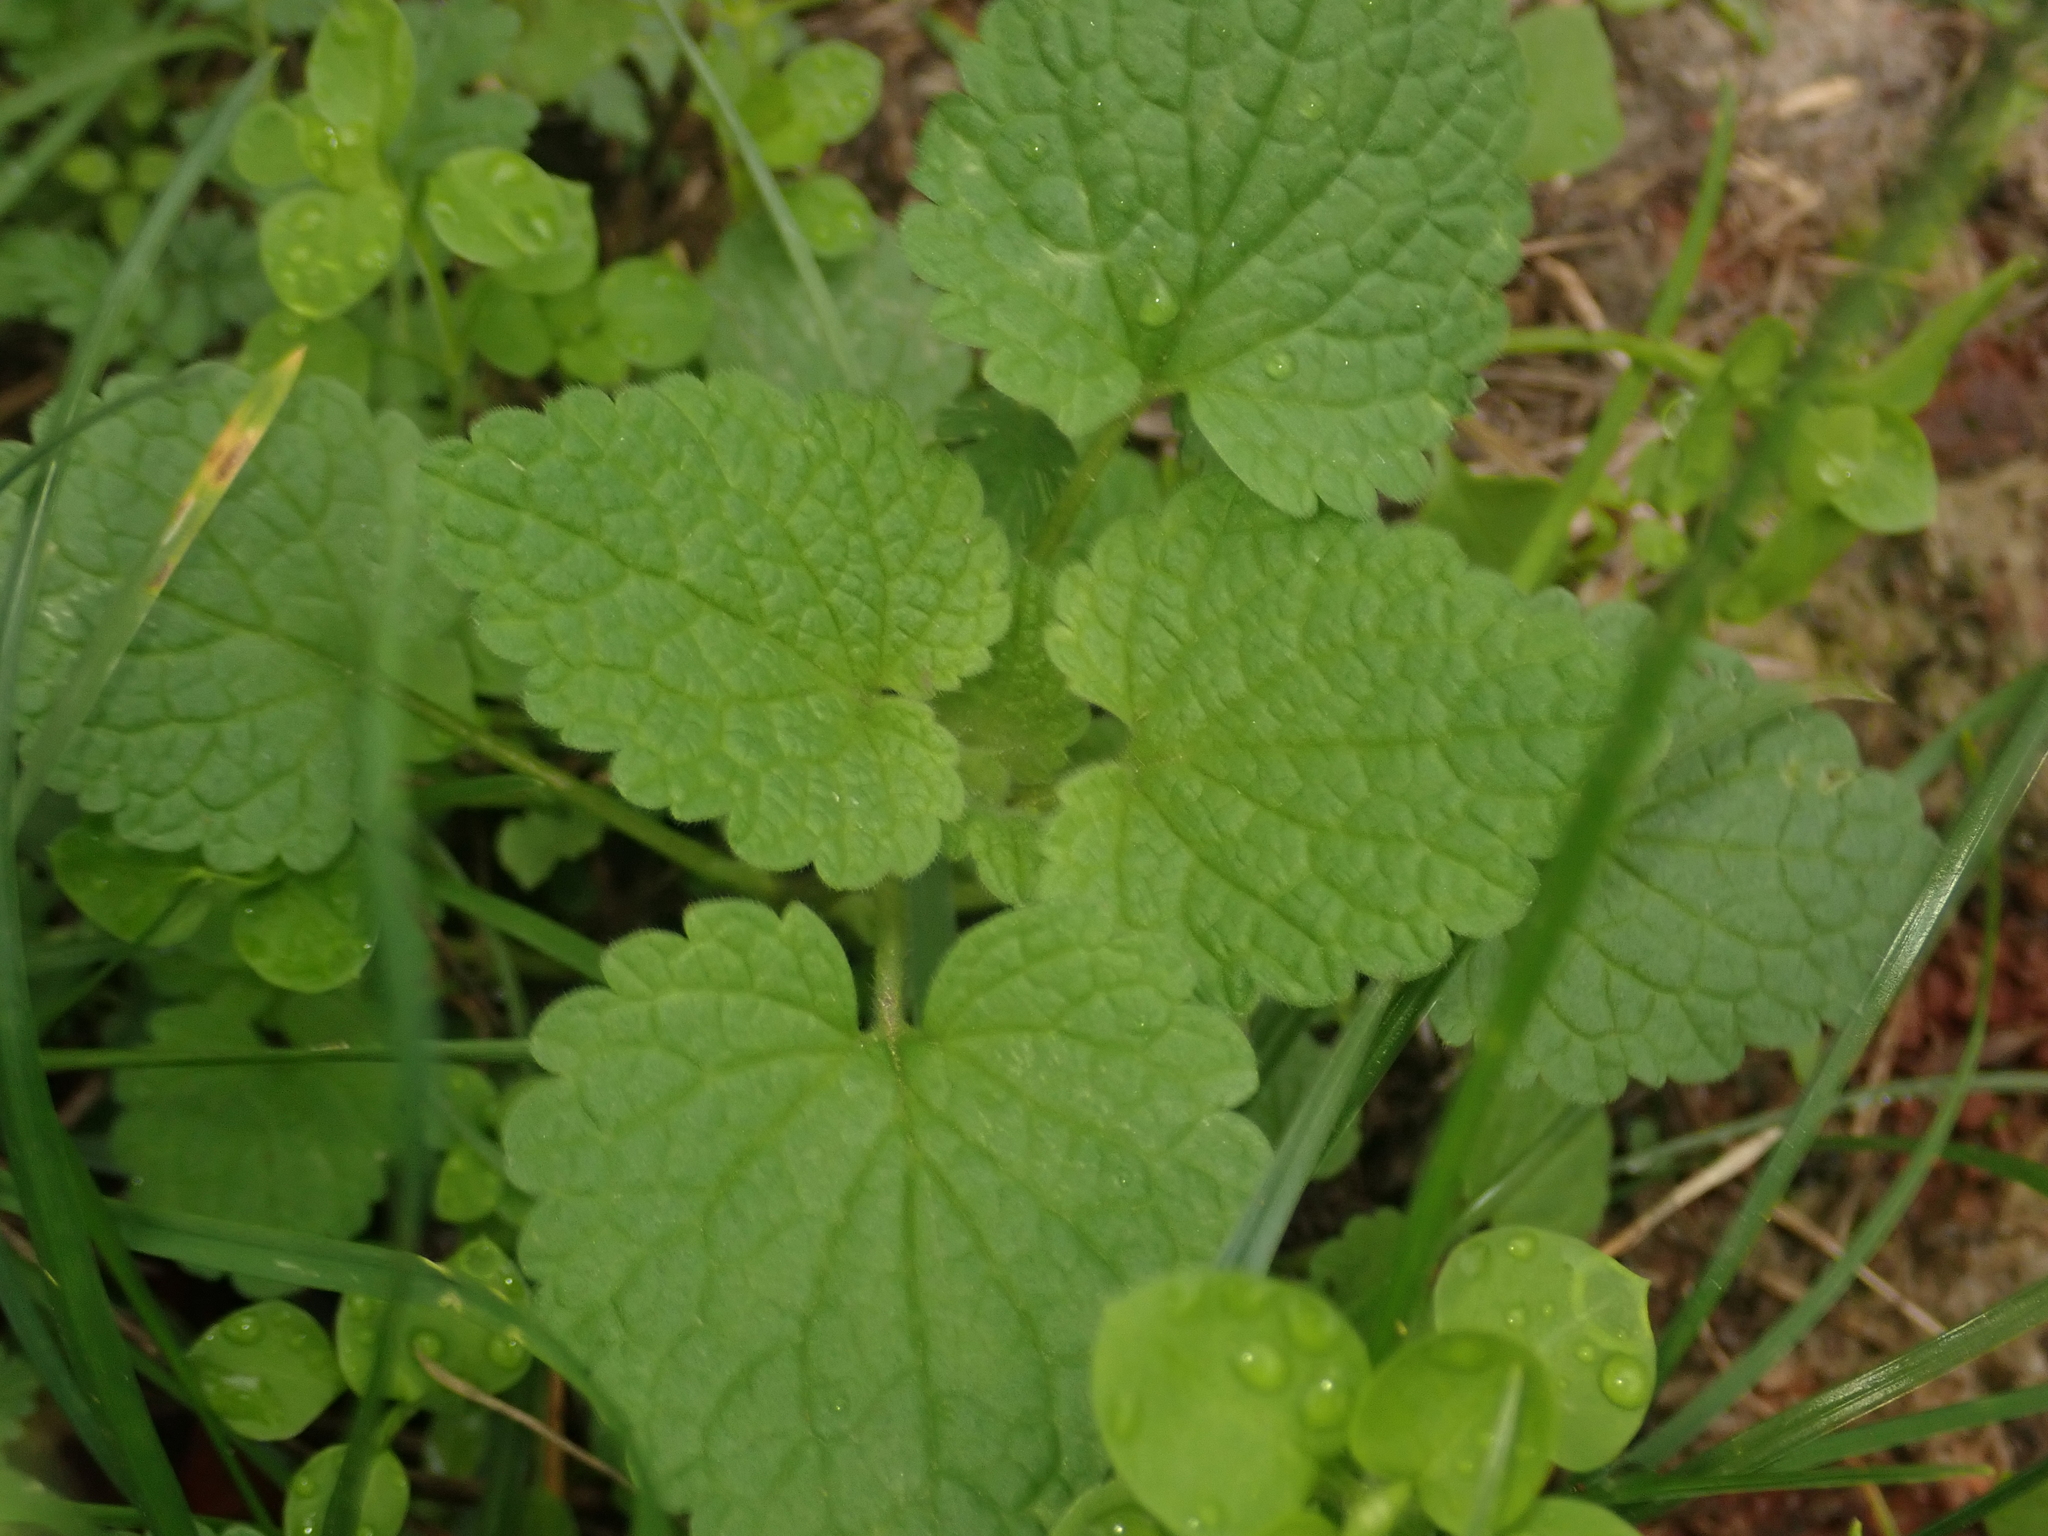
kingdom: Plantae
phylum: Tracheophyta
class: Magnoliopsida
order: Lamiales
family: Lamiaceae
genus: Lamium
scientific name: Lamium purpureum
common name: Red dead-nettle
